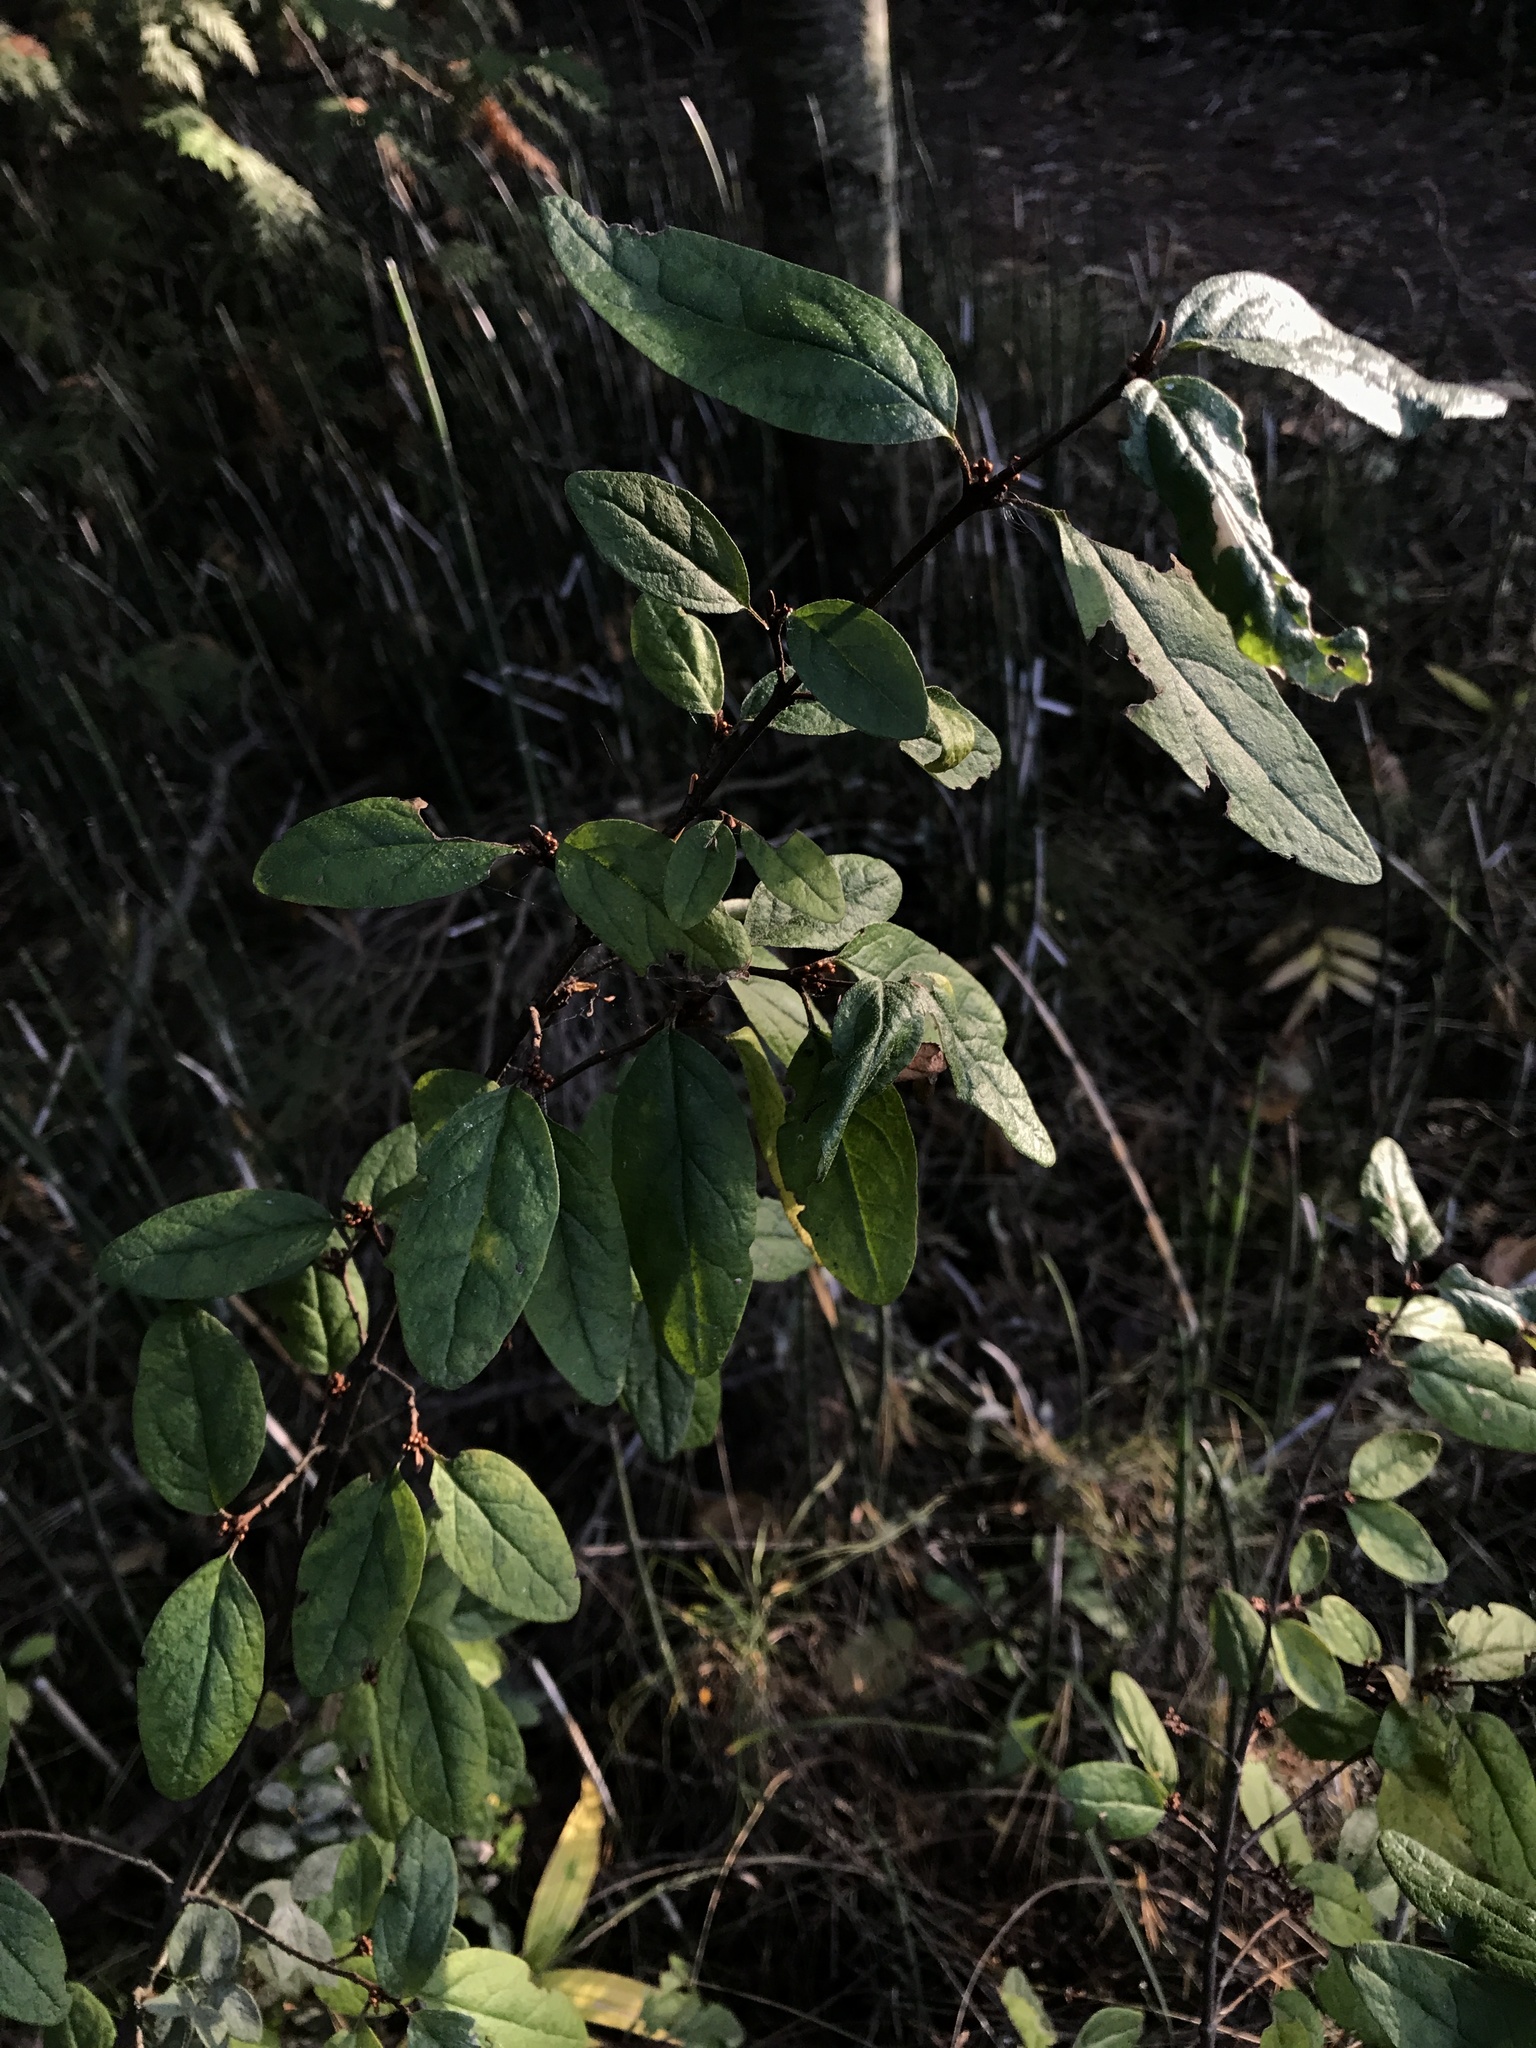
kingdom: Plantae
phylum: Tracheophyta
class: Magnoliopsida
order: Rosales
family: Elaeagnaceae
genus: Shepherdia
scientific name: Shepherdia canadensis
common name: Soapberry
